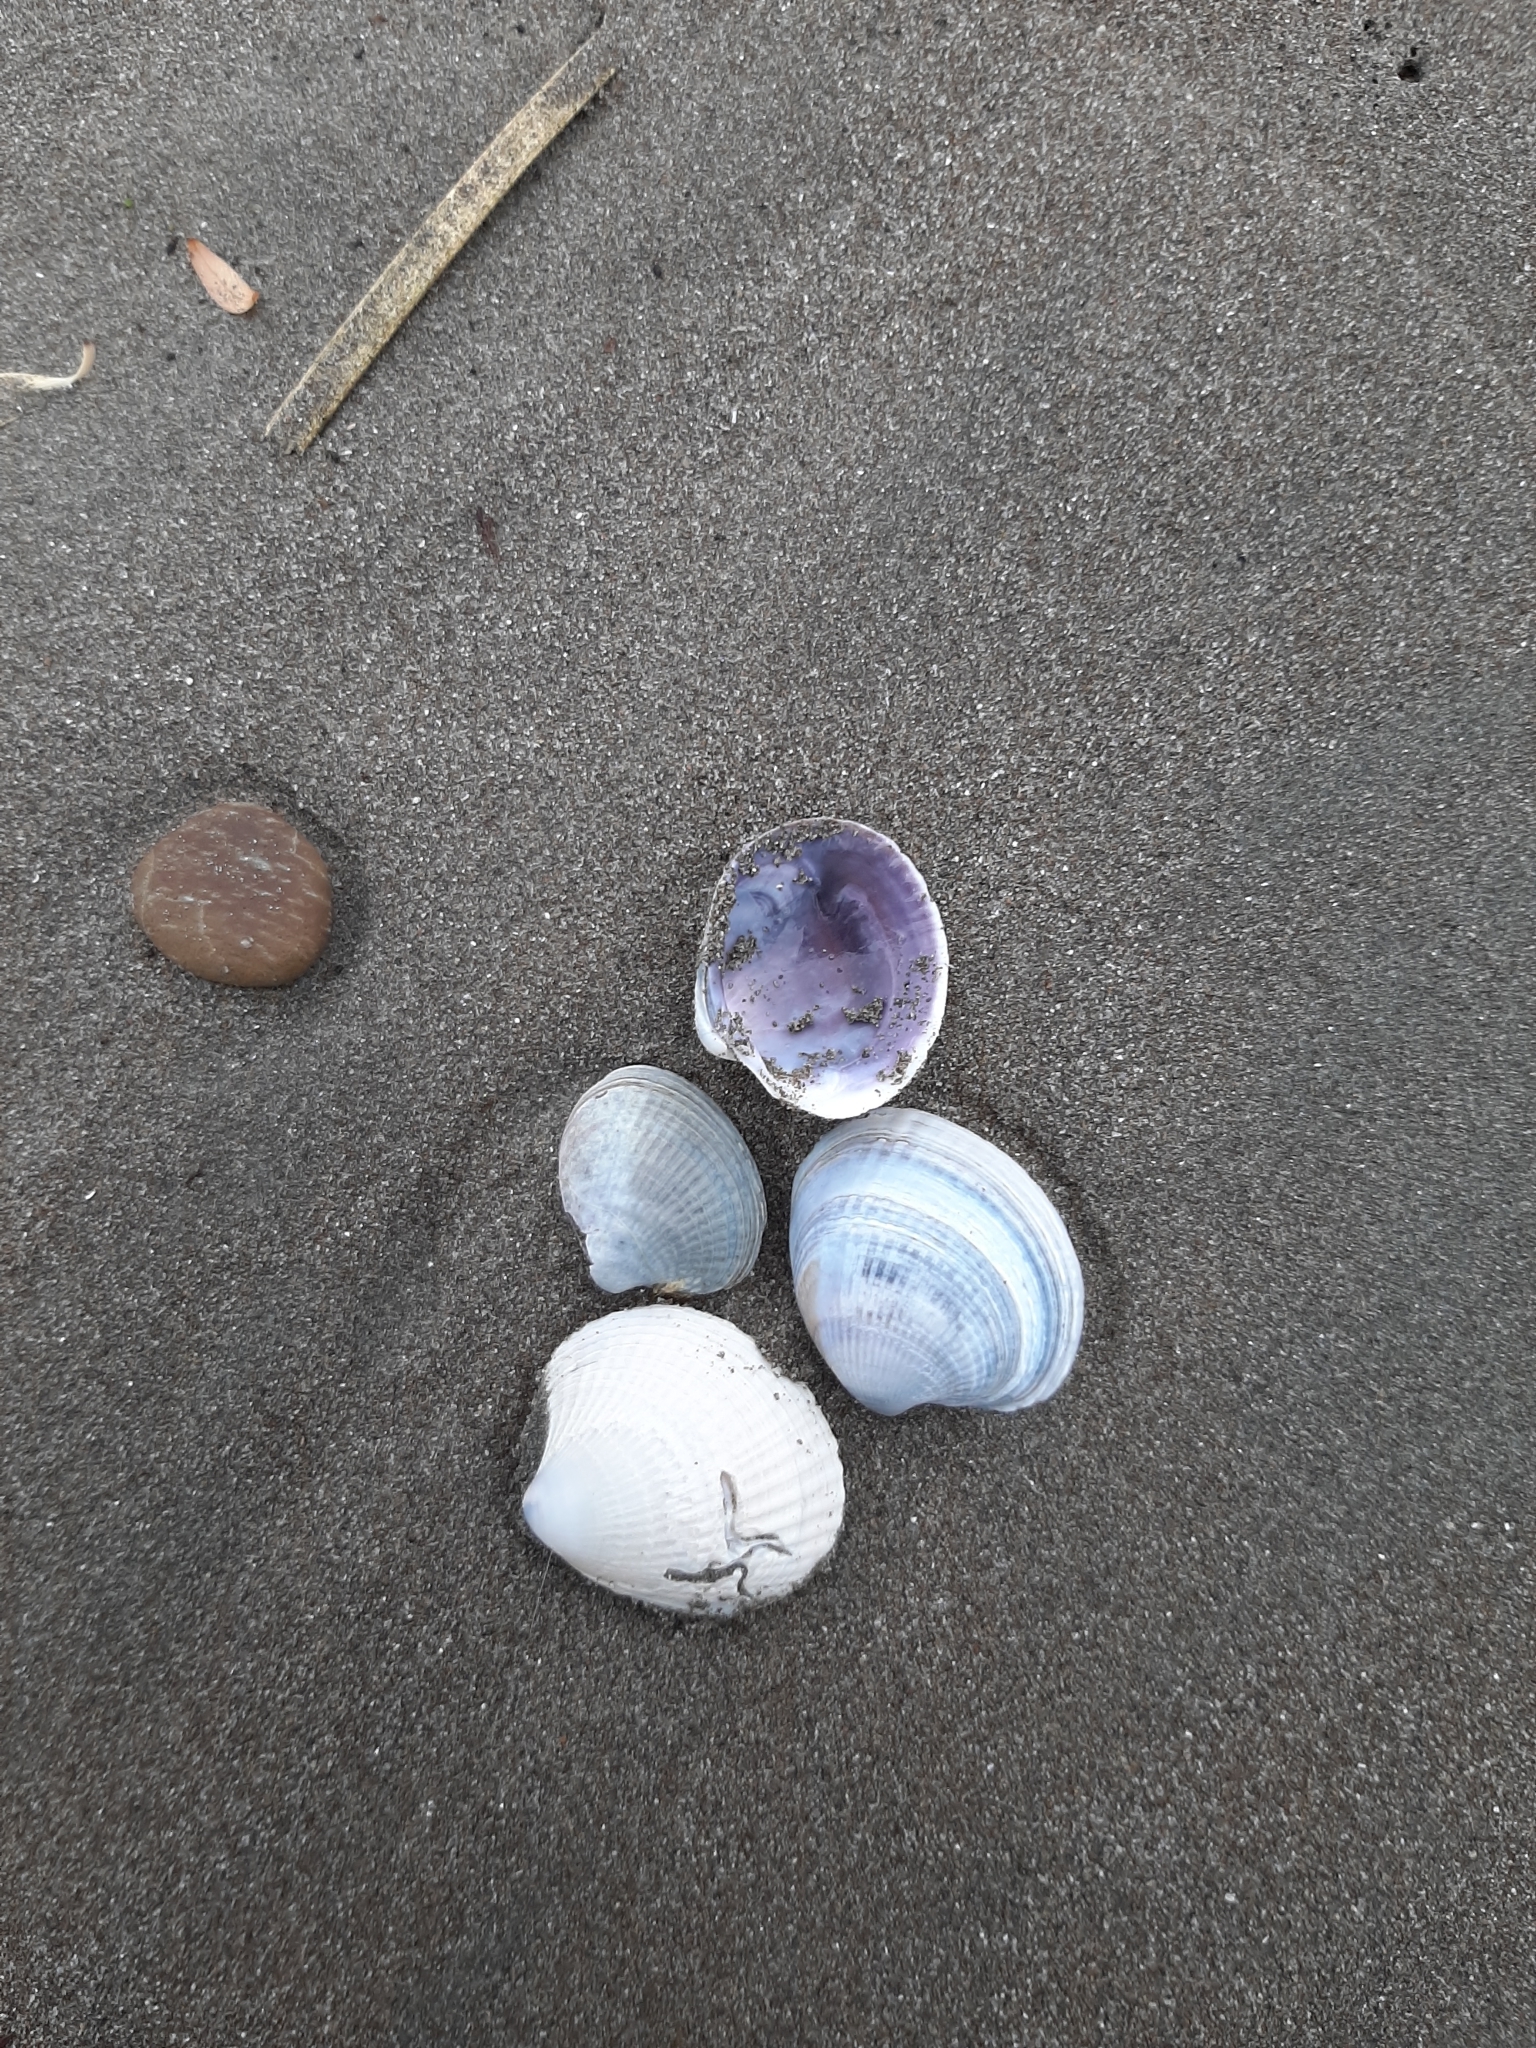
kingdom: Animalia
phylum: Mollusca
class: Bivalvia
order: Venerida
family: Veneridae
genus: Austrovenus
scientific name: Austrovenus stutchburyi
